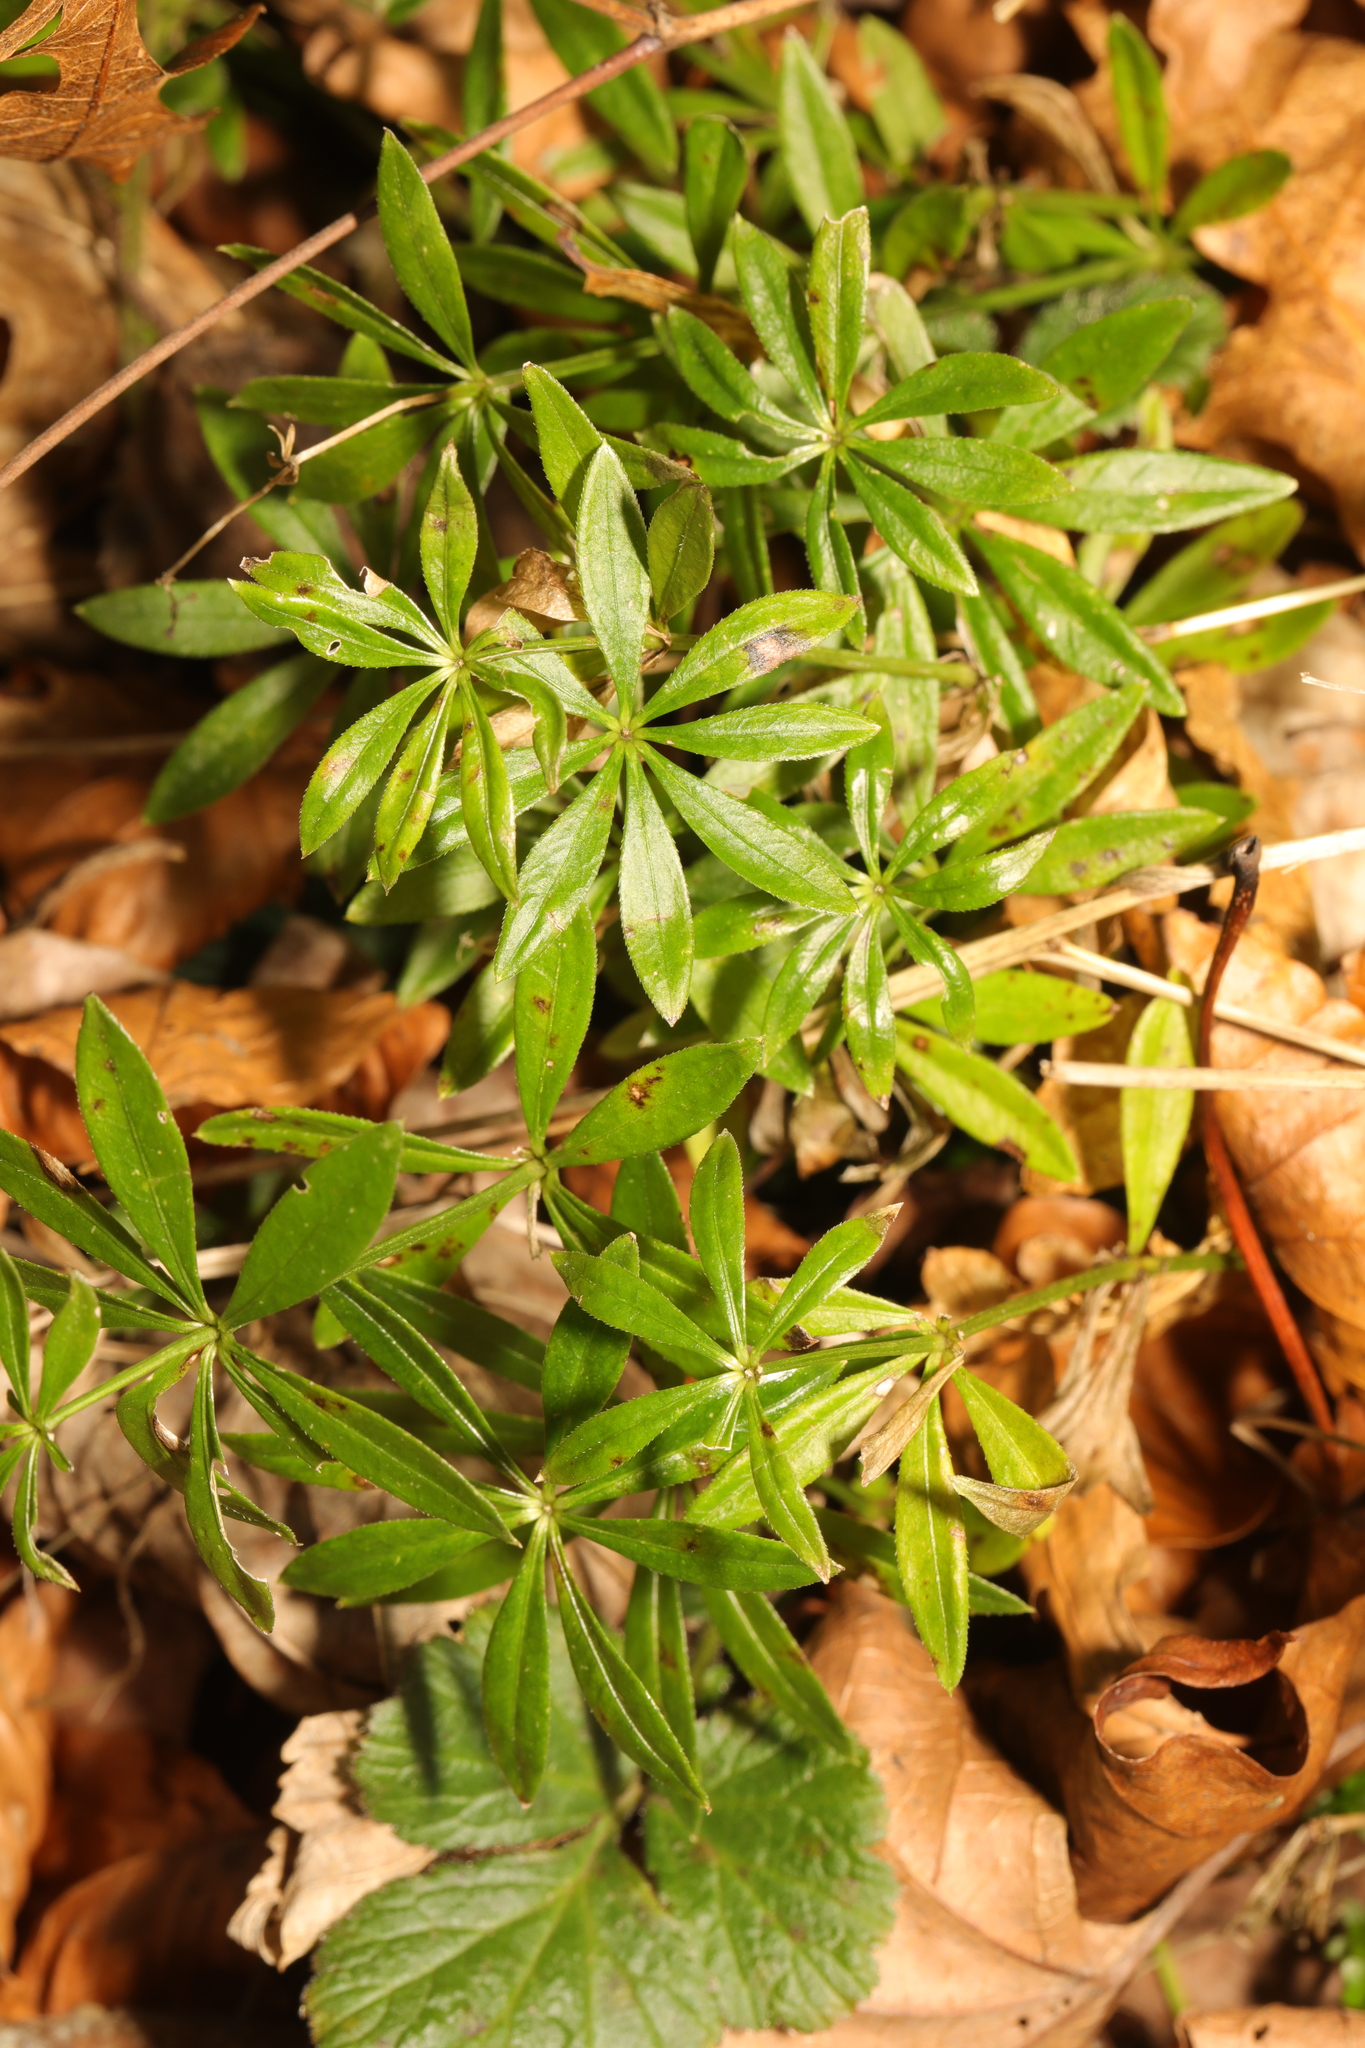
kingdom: Plantae
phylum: Tracheophyta
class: Magnoliopsida
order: Gentianales
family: Rubiaceae
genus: Galium
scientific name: Galium odoratum
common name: Sweet woodruff
